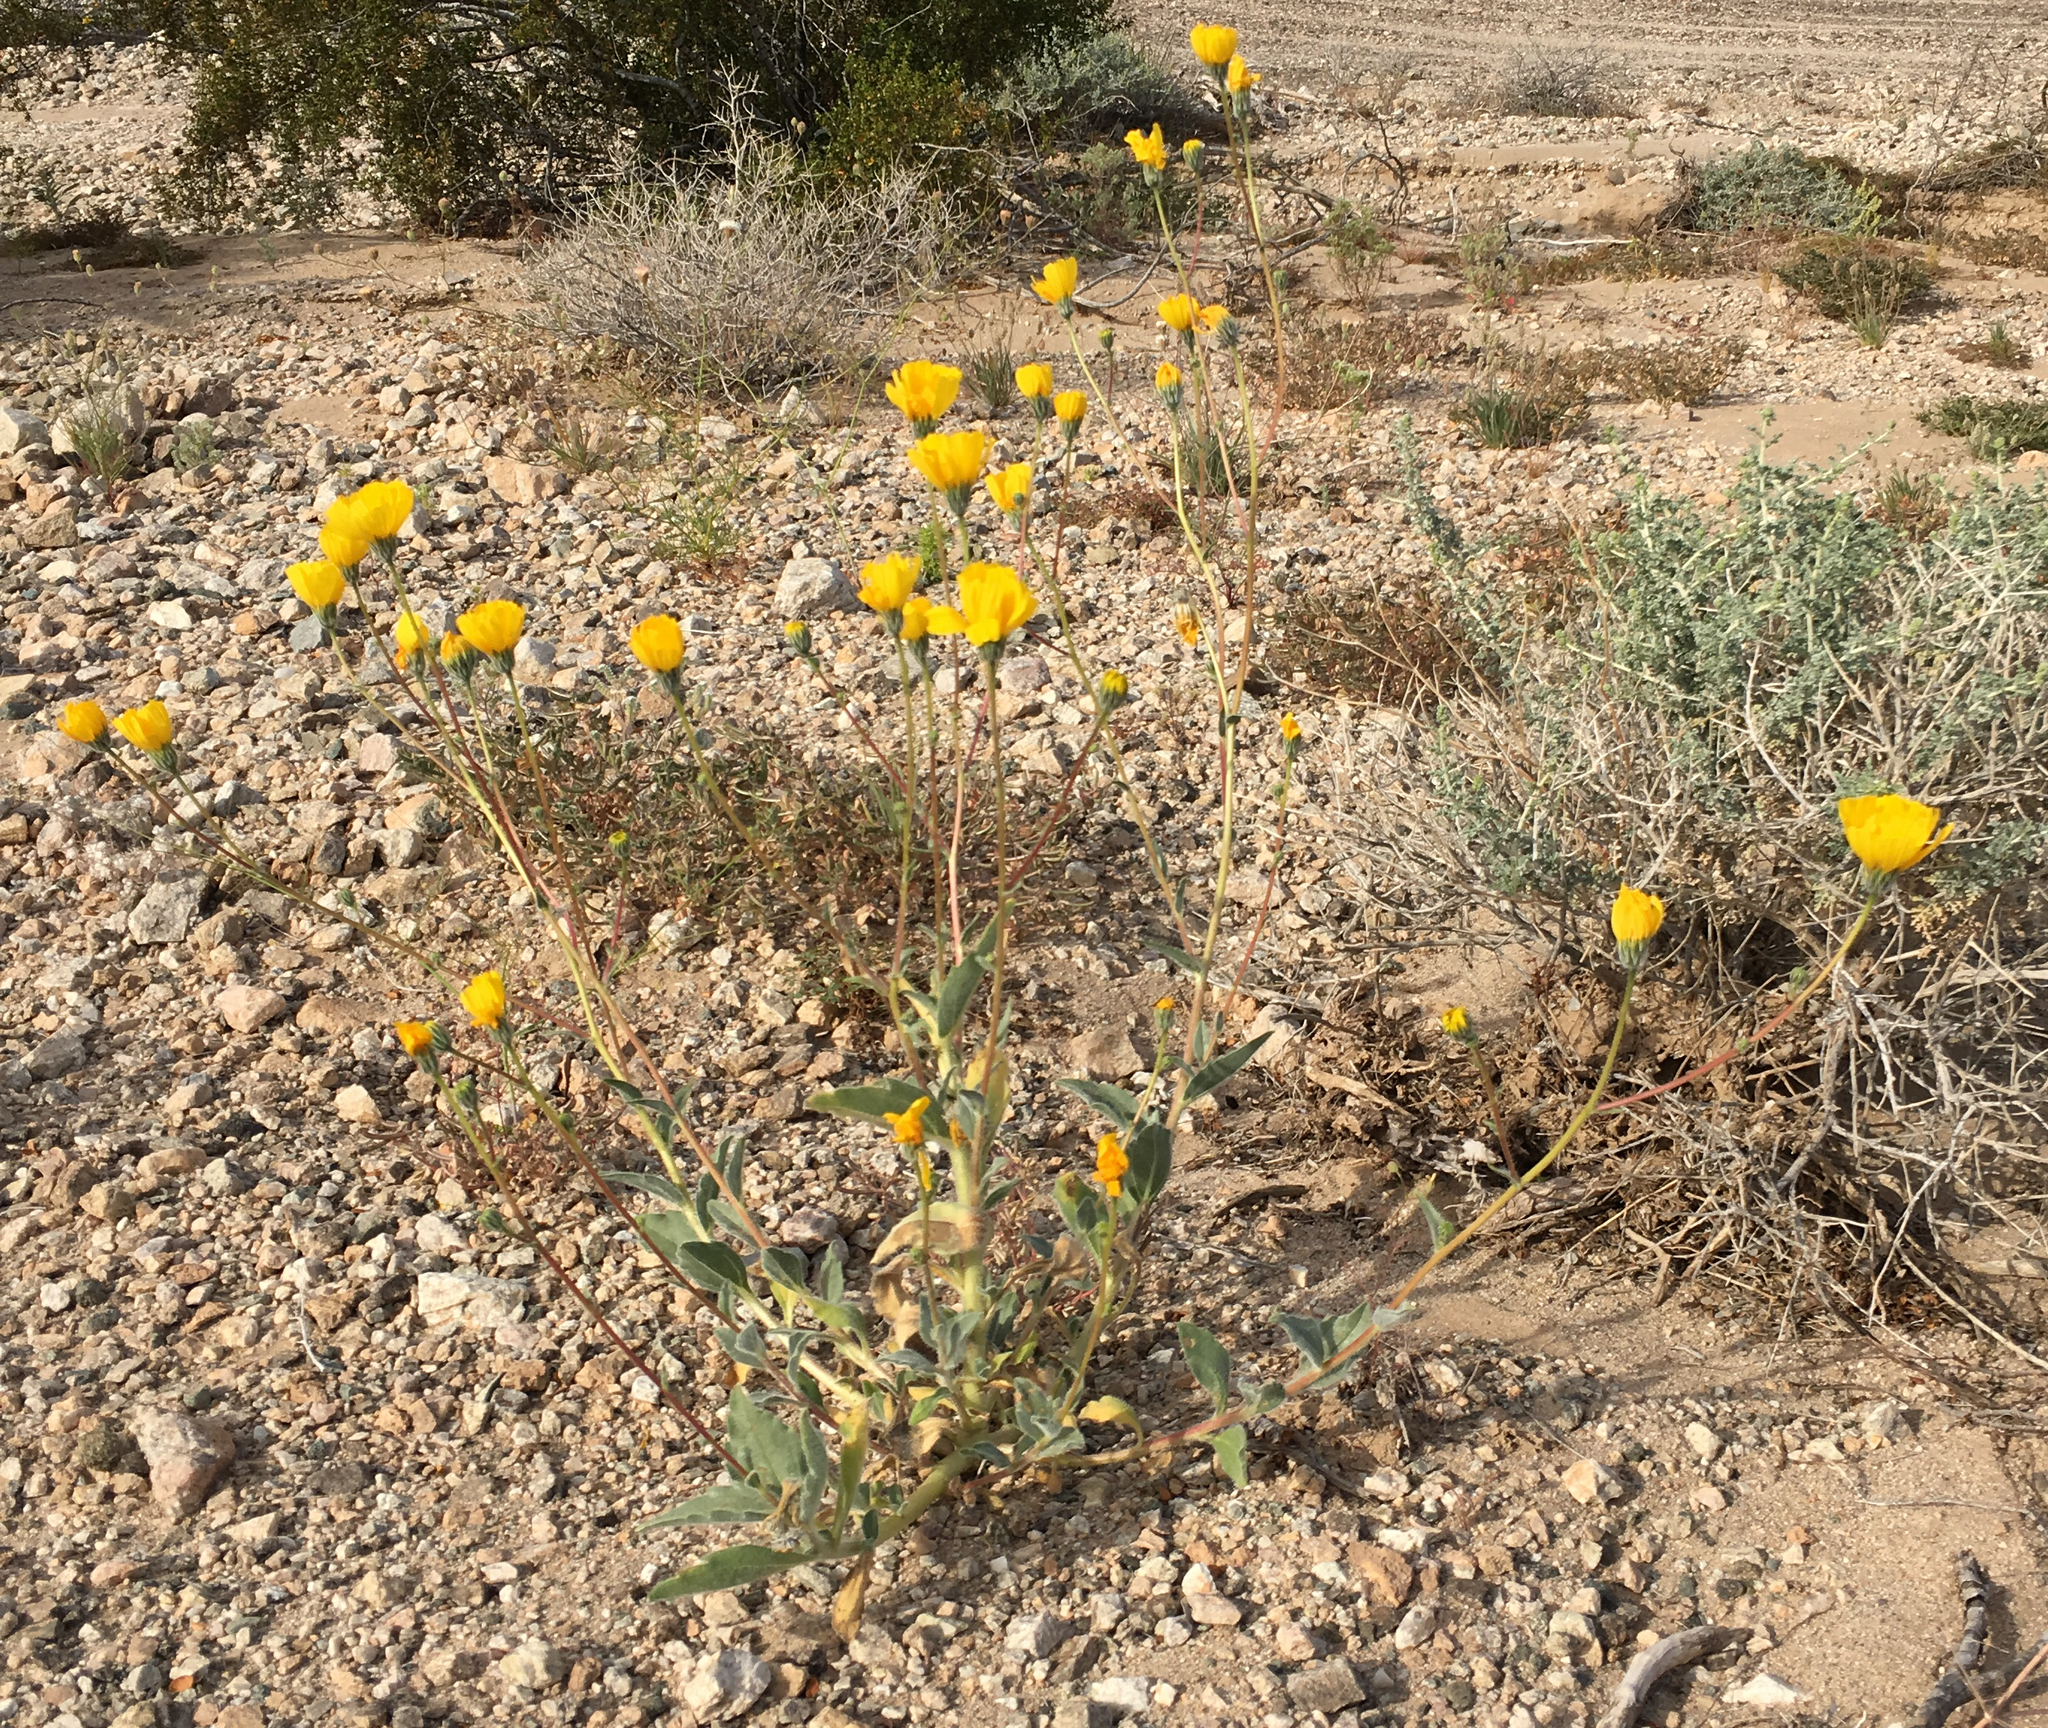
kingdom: Plantae
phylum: Tracheophyta
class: Magnoliopsida
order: Asterales
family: Asteraceae
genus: Geraea
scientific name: Geraea canescens
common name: Desert-gold
